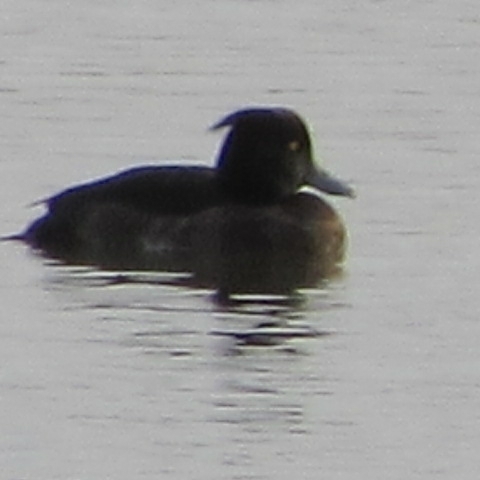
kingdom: Animalia
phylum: Chordata
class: Aves
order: Anseriformes
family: Anatidae
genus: Aythya
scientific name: Aythya fuligula
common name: Tufted duck
